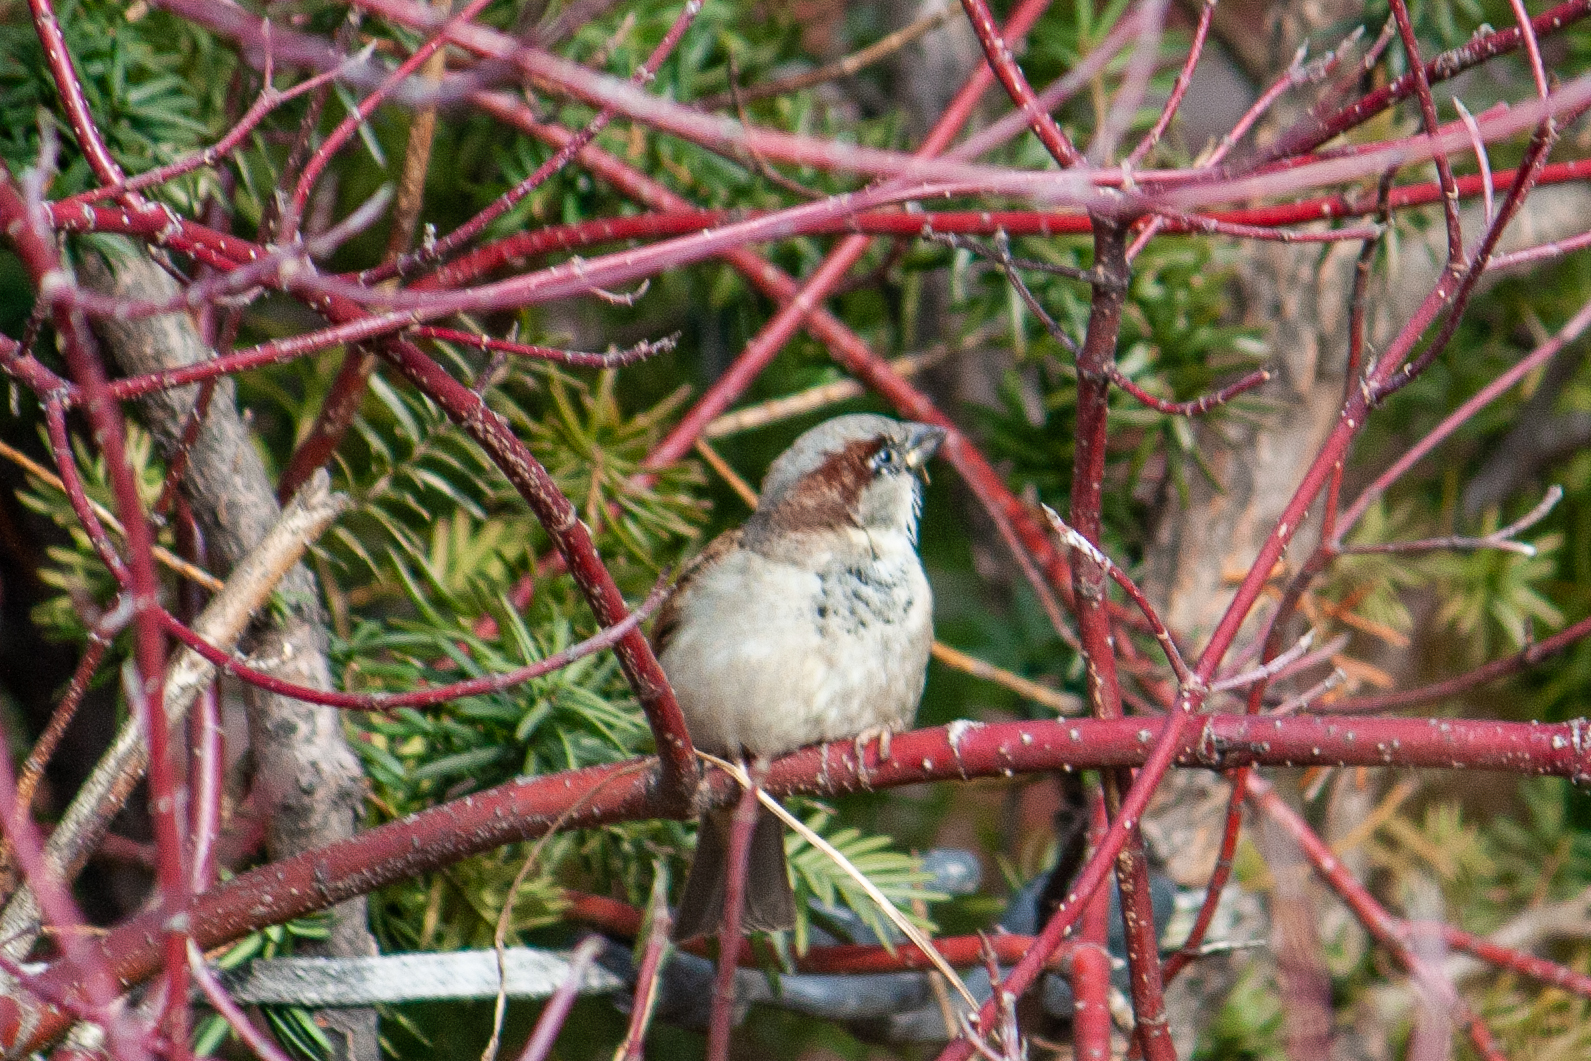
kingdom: Animalia
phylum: Chordata
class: Aves
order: Passeriformes
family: Passeridae
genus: Passer
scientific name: Passer domesticus
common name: House sparrow
